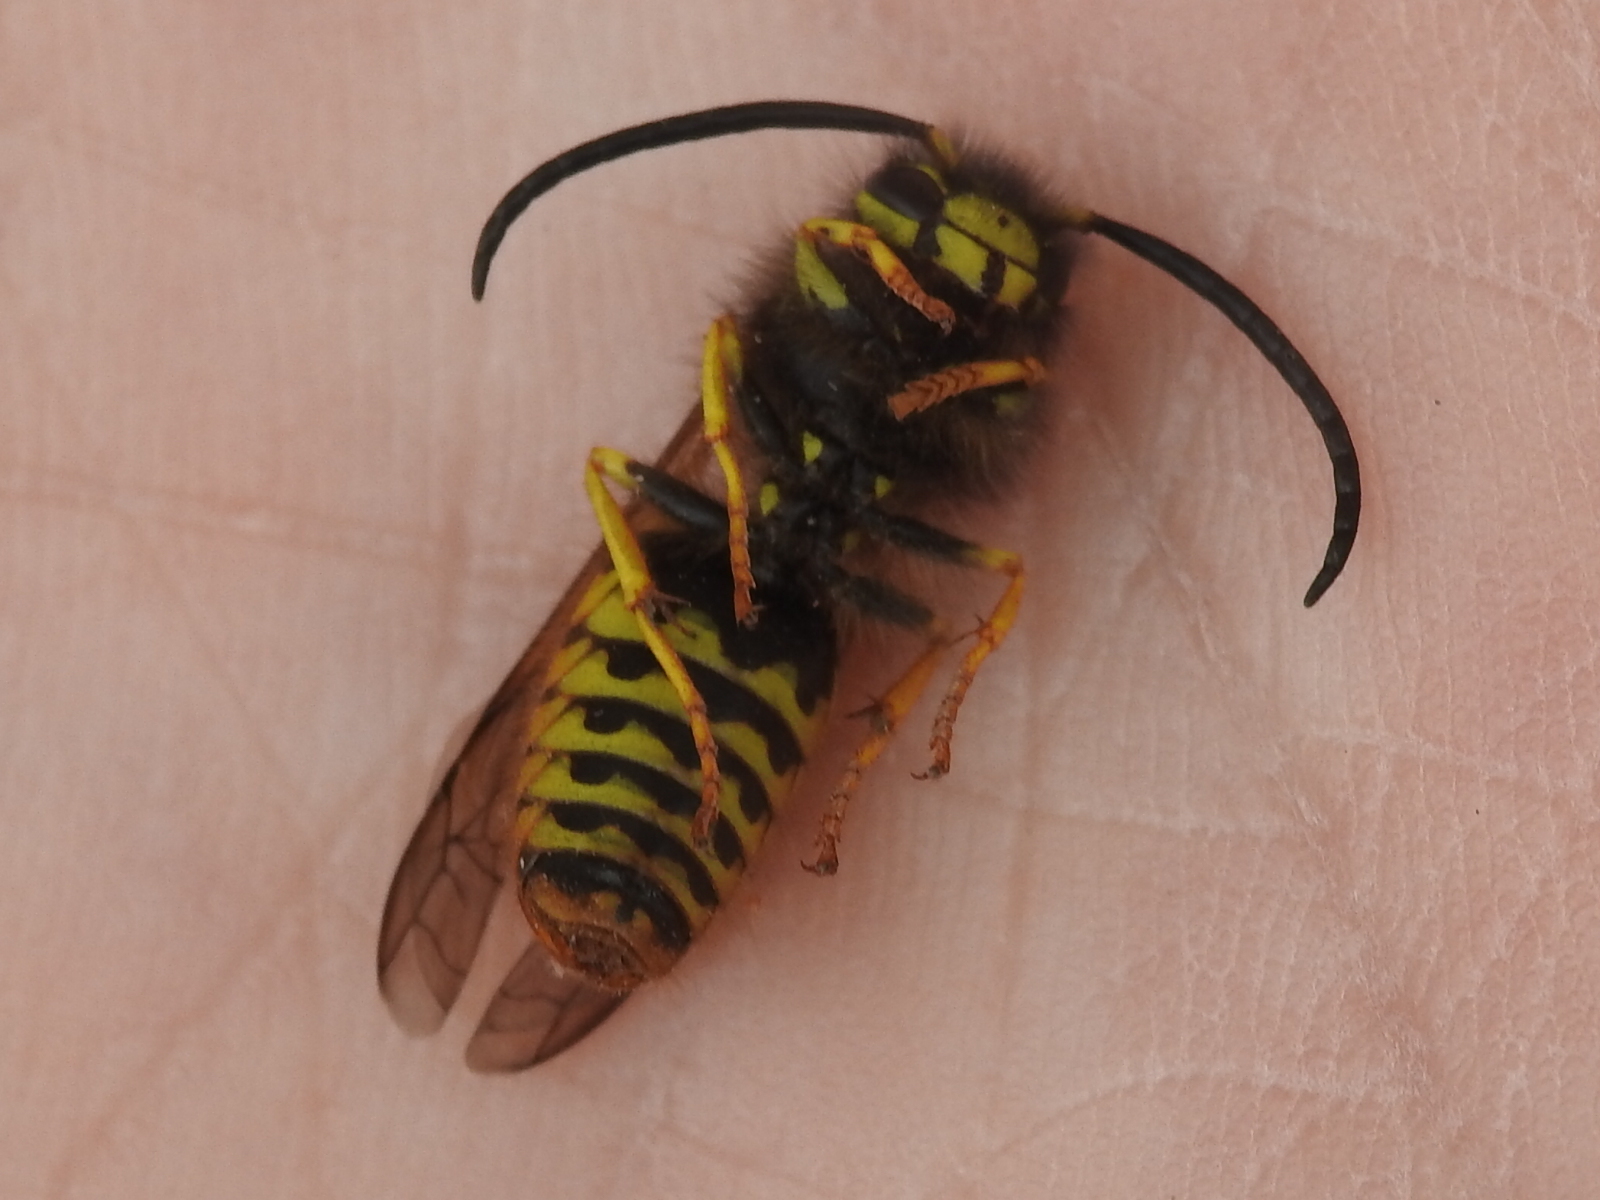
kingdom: Animalia
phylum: Arthropoda
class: Insecta
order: Hymenoptera
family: Vespidae
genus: Vespula
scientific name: Vespula pensylvanica
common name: Western yellowjacket
